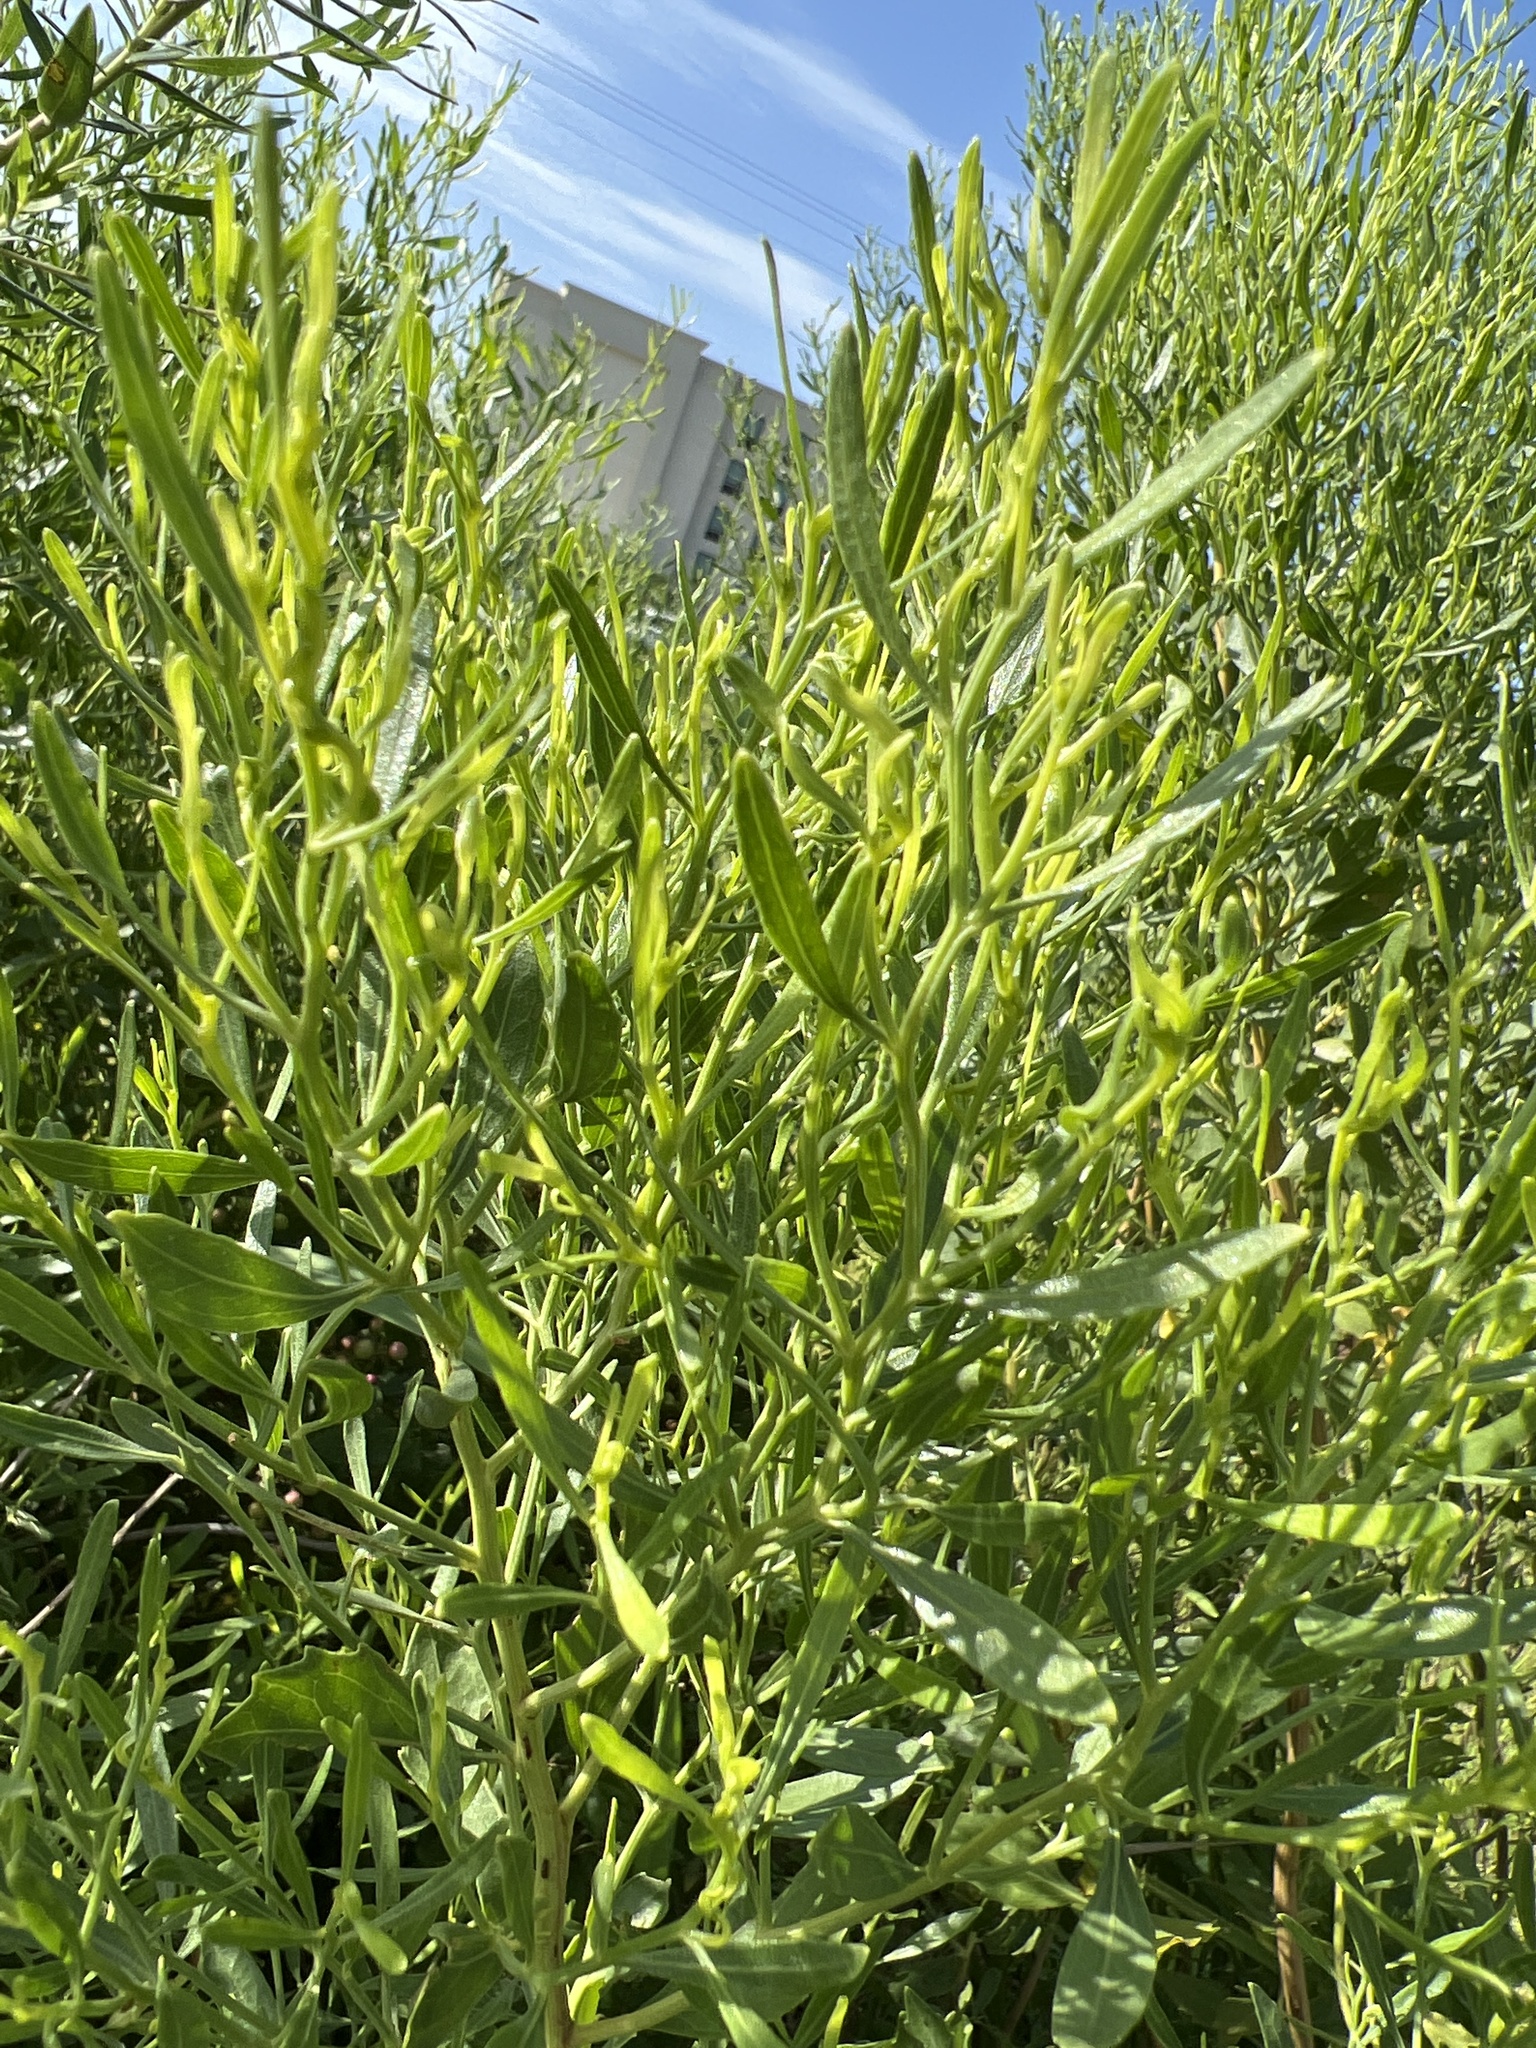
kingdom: Plantae
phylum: Tracheophyta
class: Magnoliopsida
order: Asterales
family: Asteraceae
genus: Baccharis
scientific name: Baccharis halimifolia
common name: Eastern baccharis
